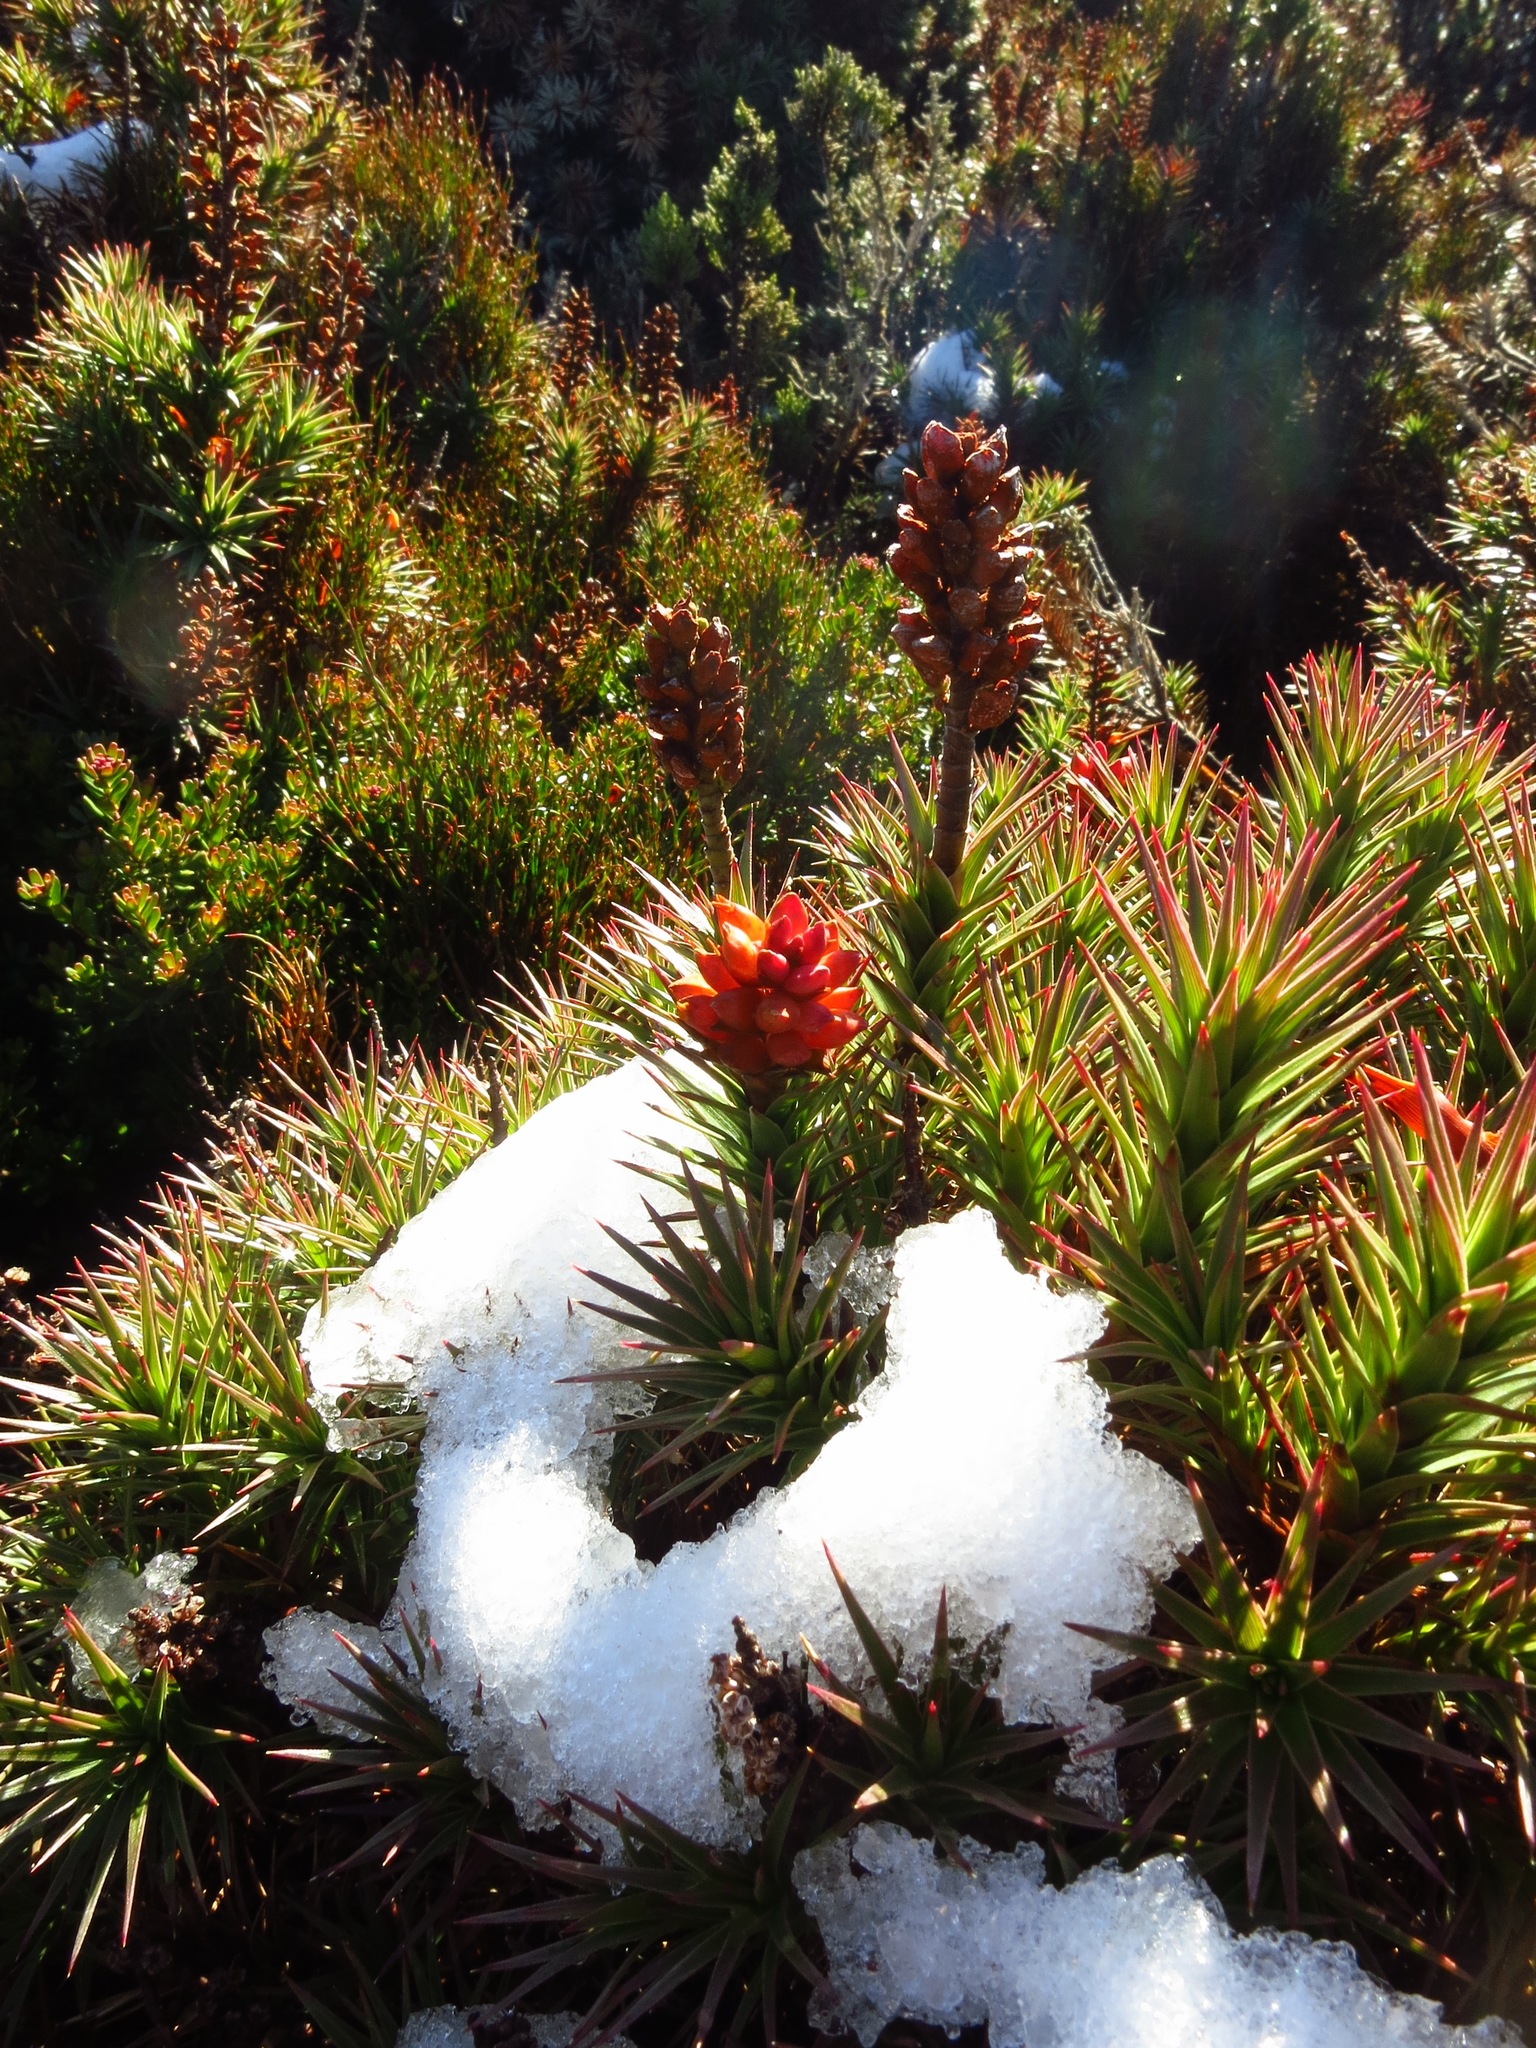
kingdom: Plantae
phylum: Tracheophyta
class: Magnoliopsida
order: Ericales
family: Ericaceae
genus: Dracophyllum
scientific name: Dracophyllum persistentifolium
